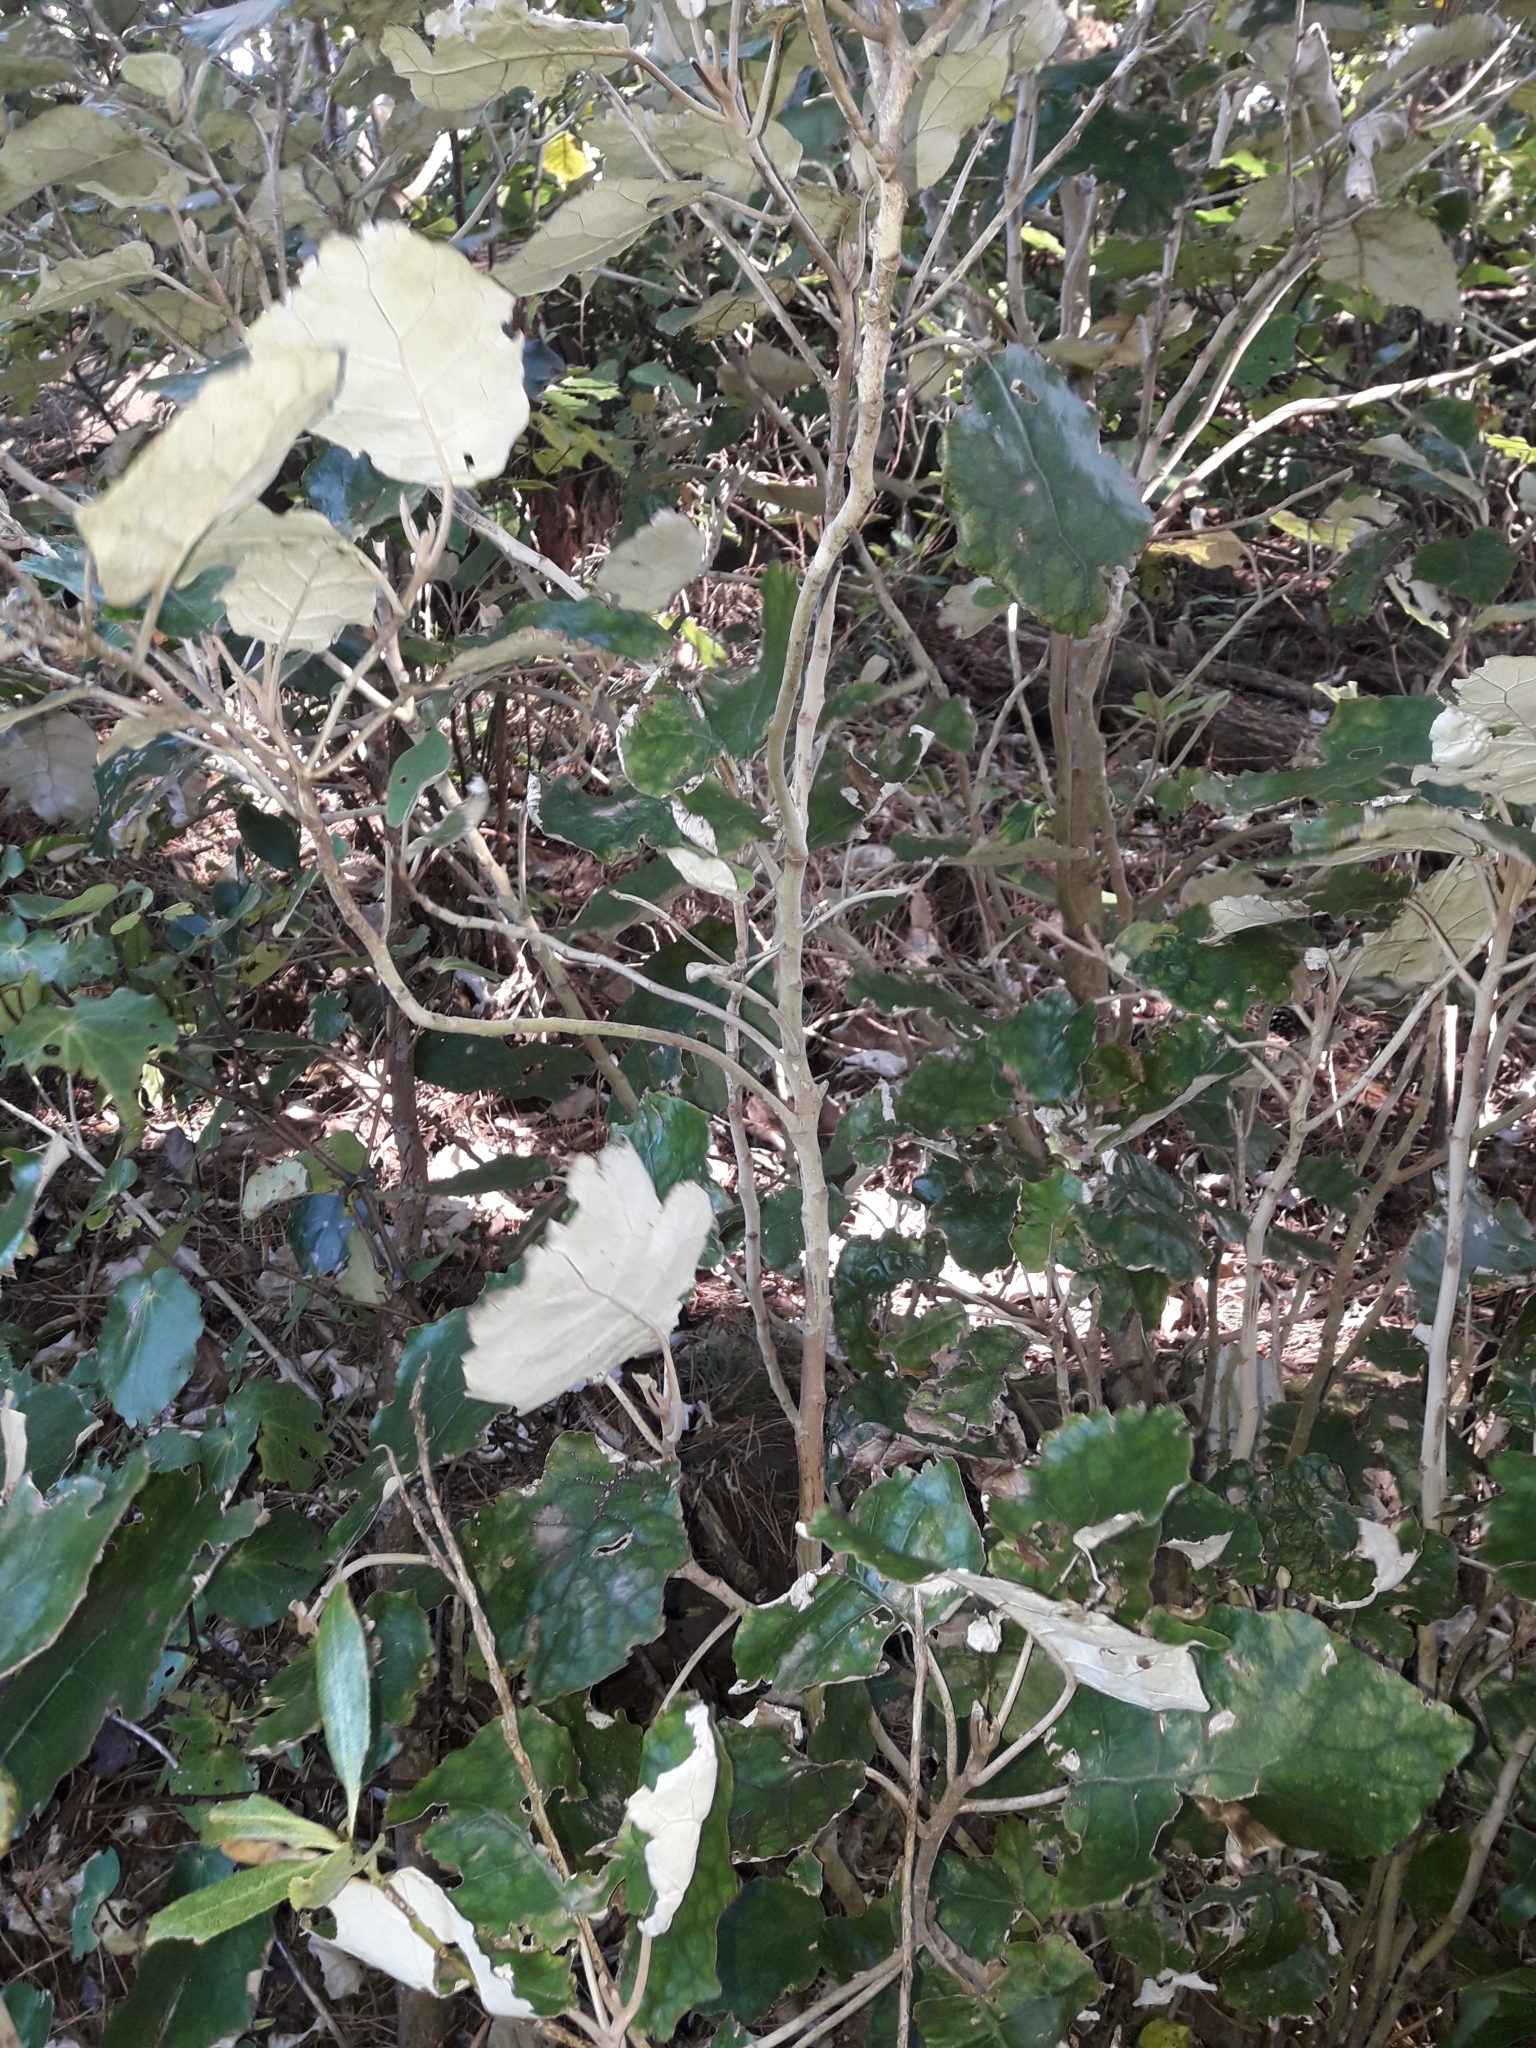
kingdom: Plantae
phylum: Tracheophyta
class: Magnoliopsida
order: Asterales
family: Asteraceae
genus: Brachyglottis
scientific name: Brachyglottis repanda
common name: Hedge ragwort
